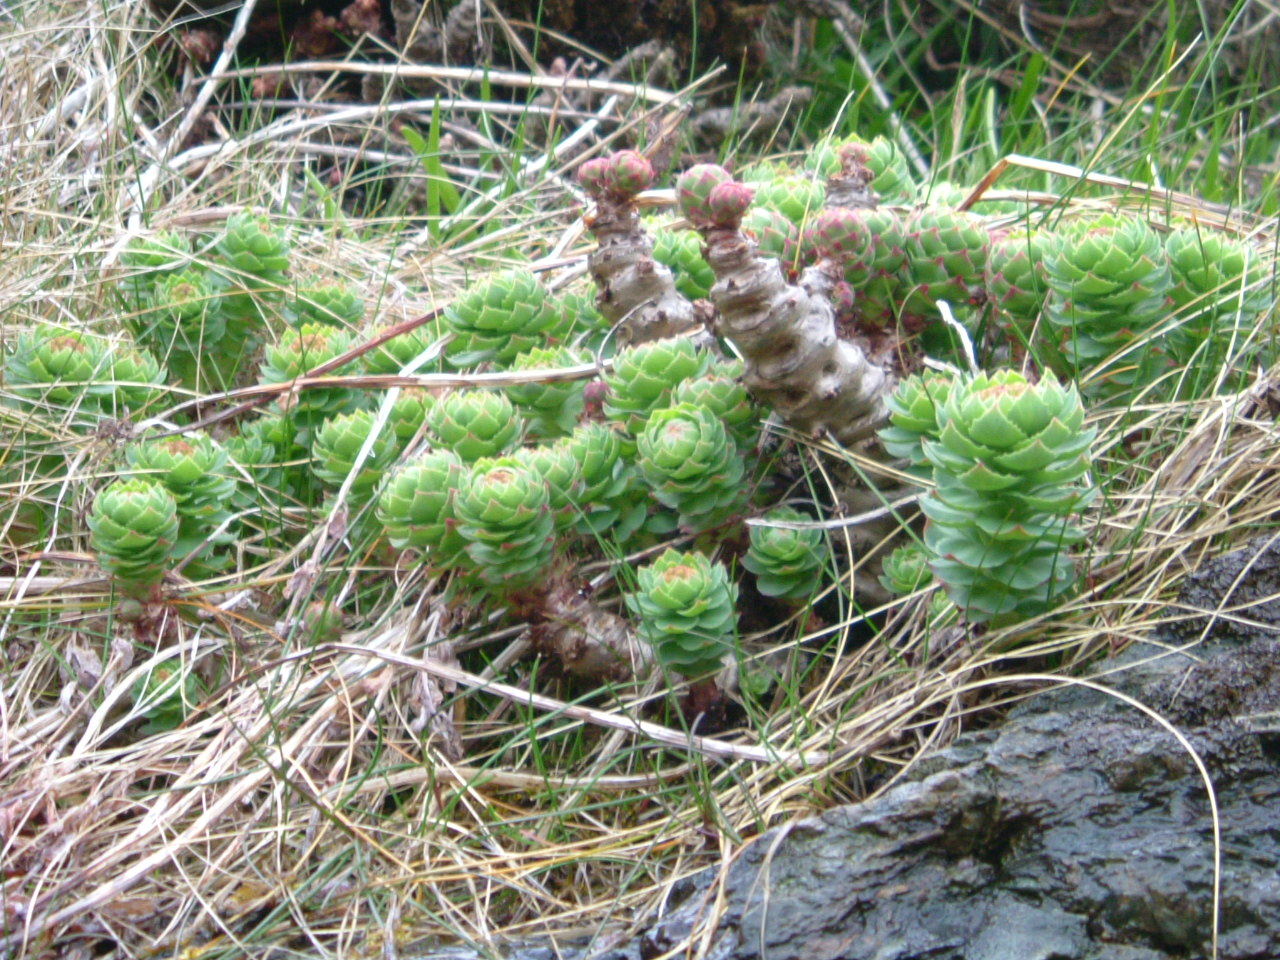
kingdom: Plantae
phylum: Tracheophyta
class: Magnoliopsida
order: Saxifragales
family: Crassulaceae
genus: Rhodiola
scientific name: Rhodiola rosea
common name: Roseroot
